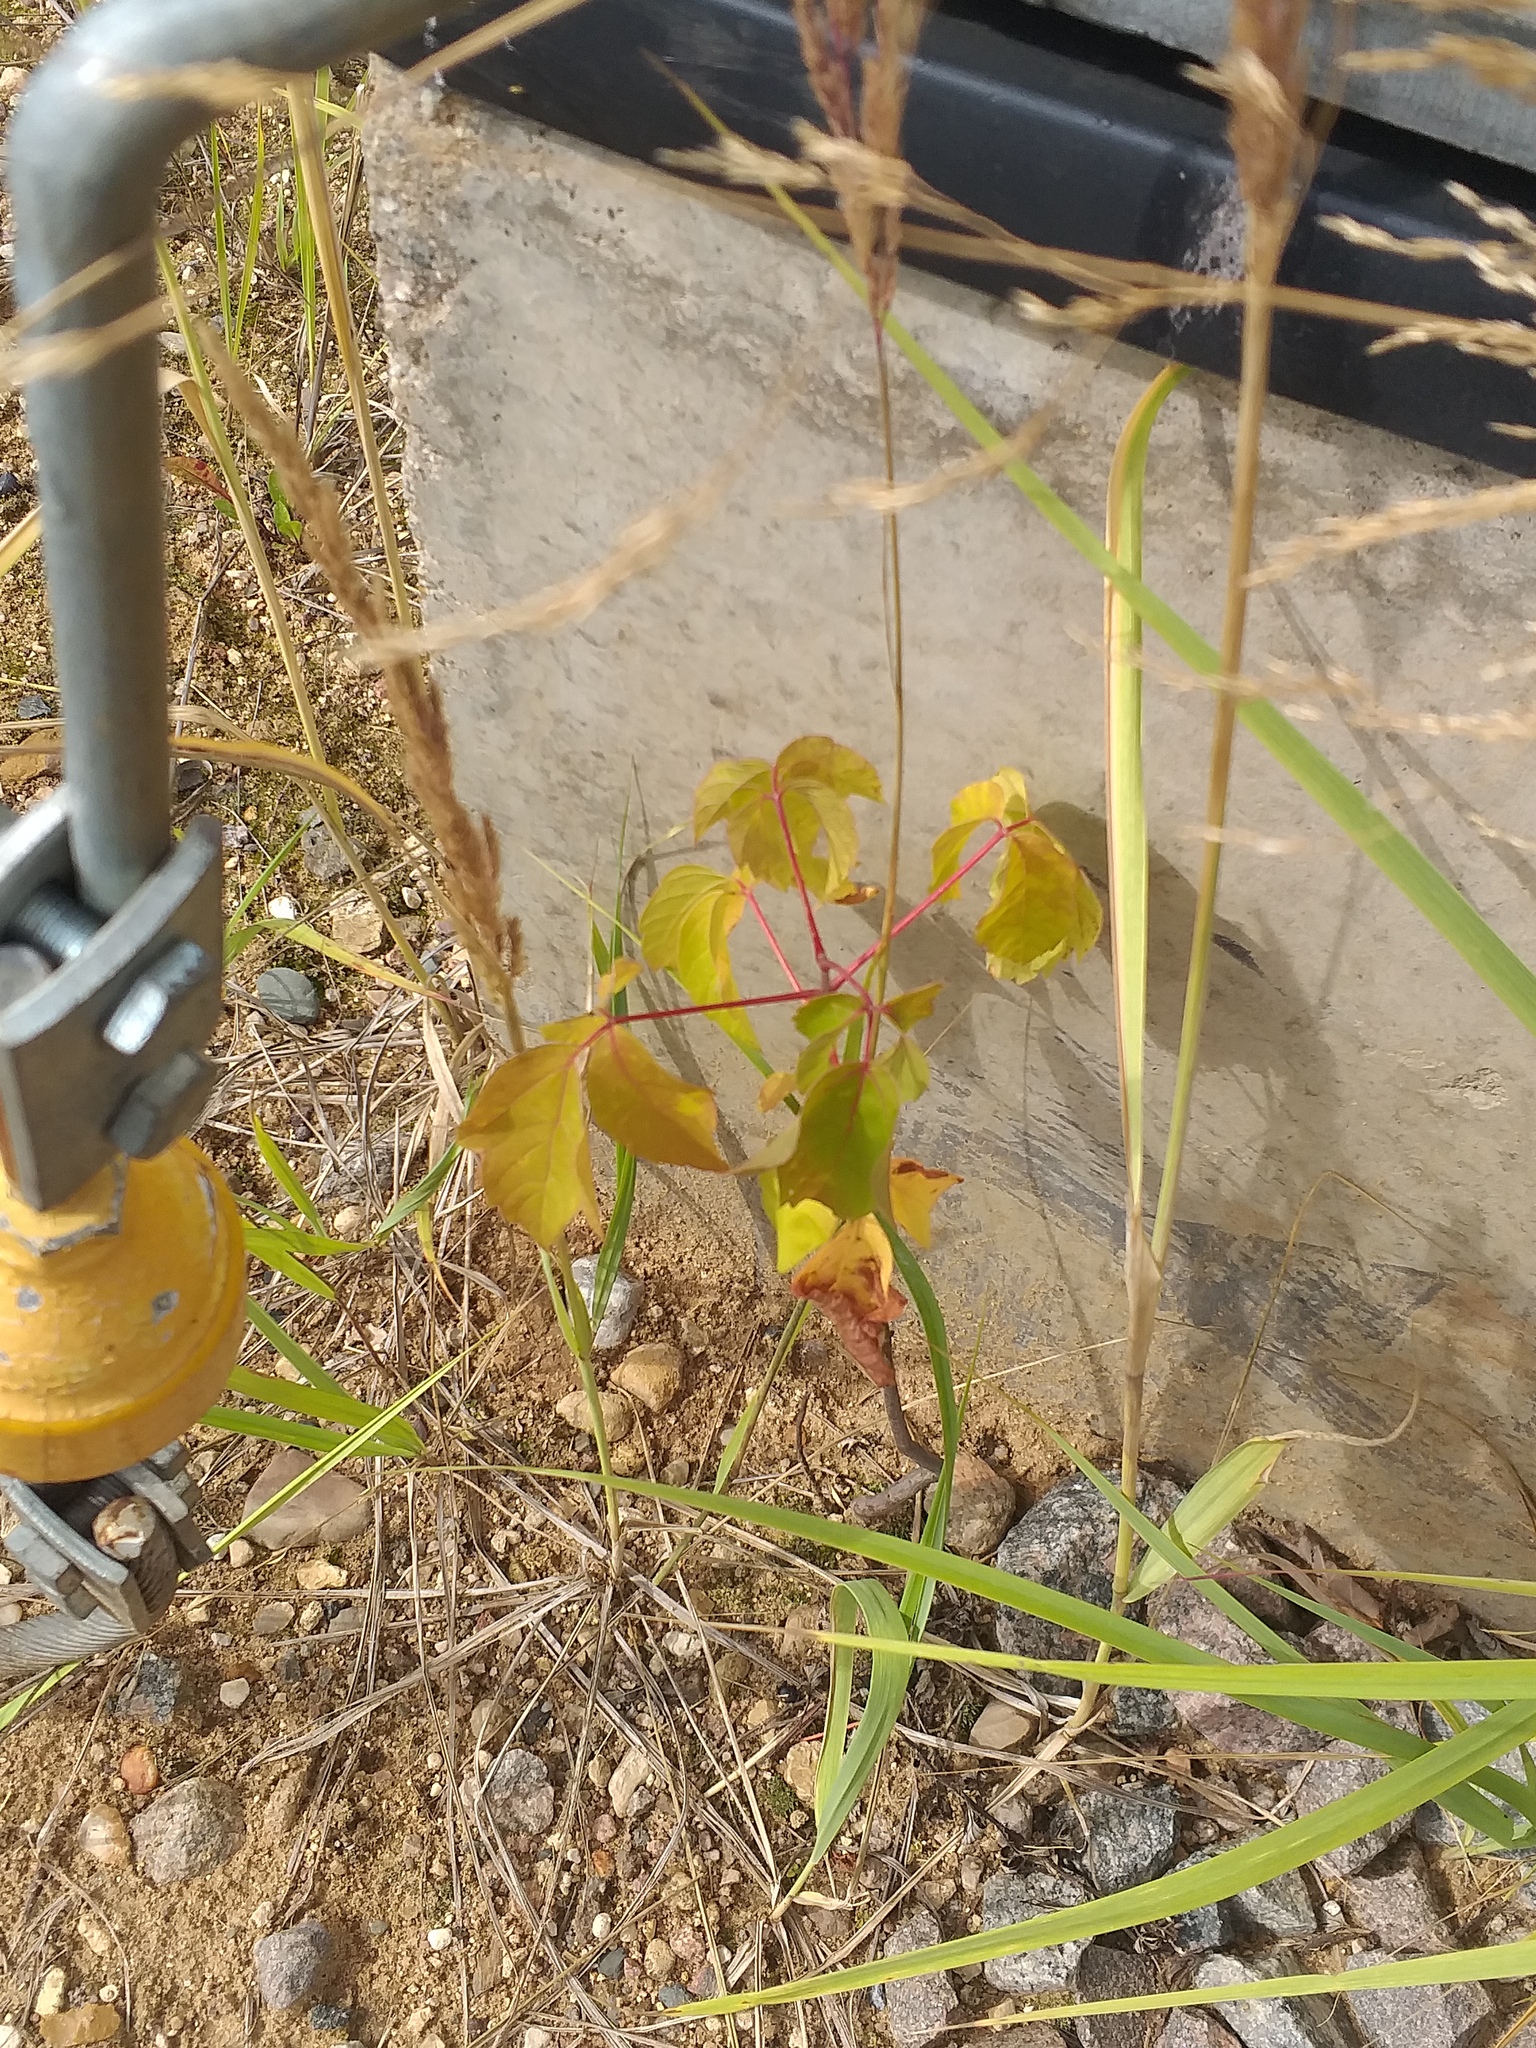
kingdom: Plantae
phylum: Tracheophyta
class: Magnoliopsida
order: Sapindales
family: Sapindaceae
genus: Acer
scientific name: Acer negundo
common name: Ashleaf maple
